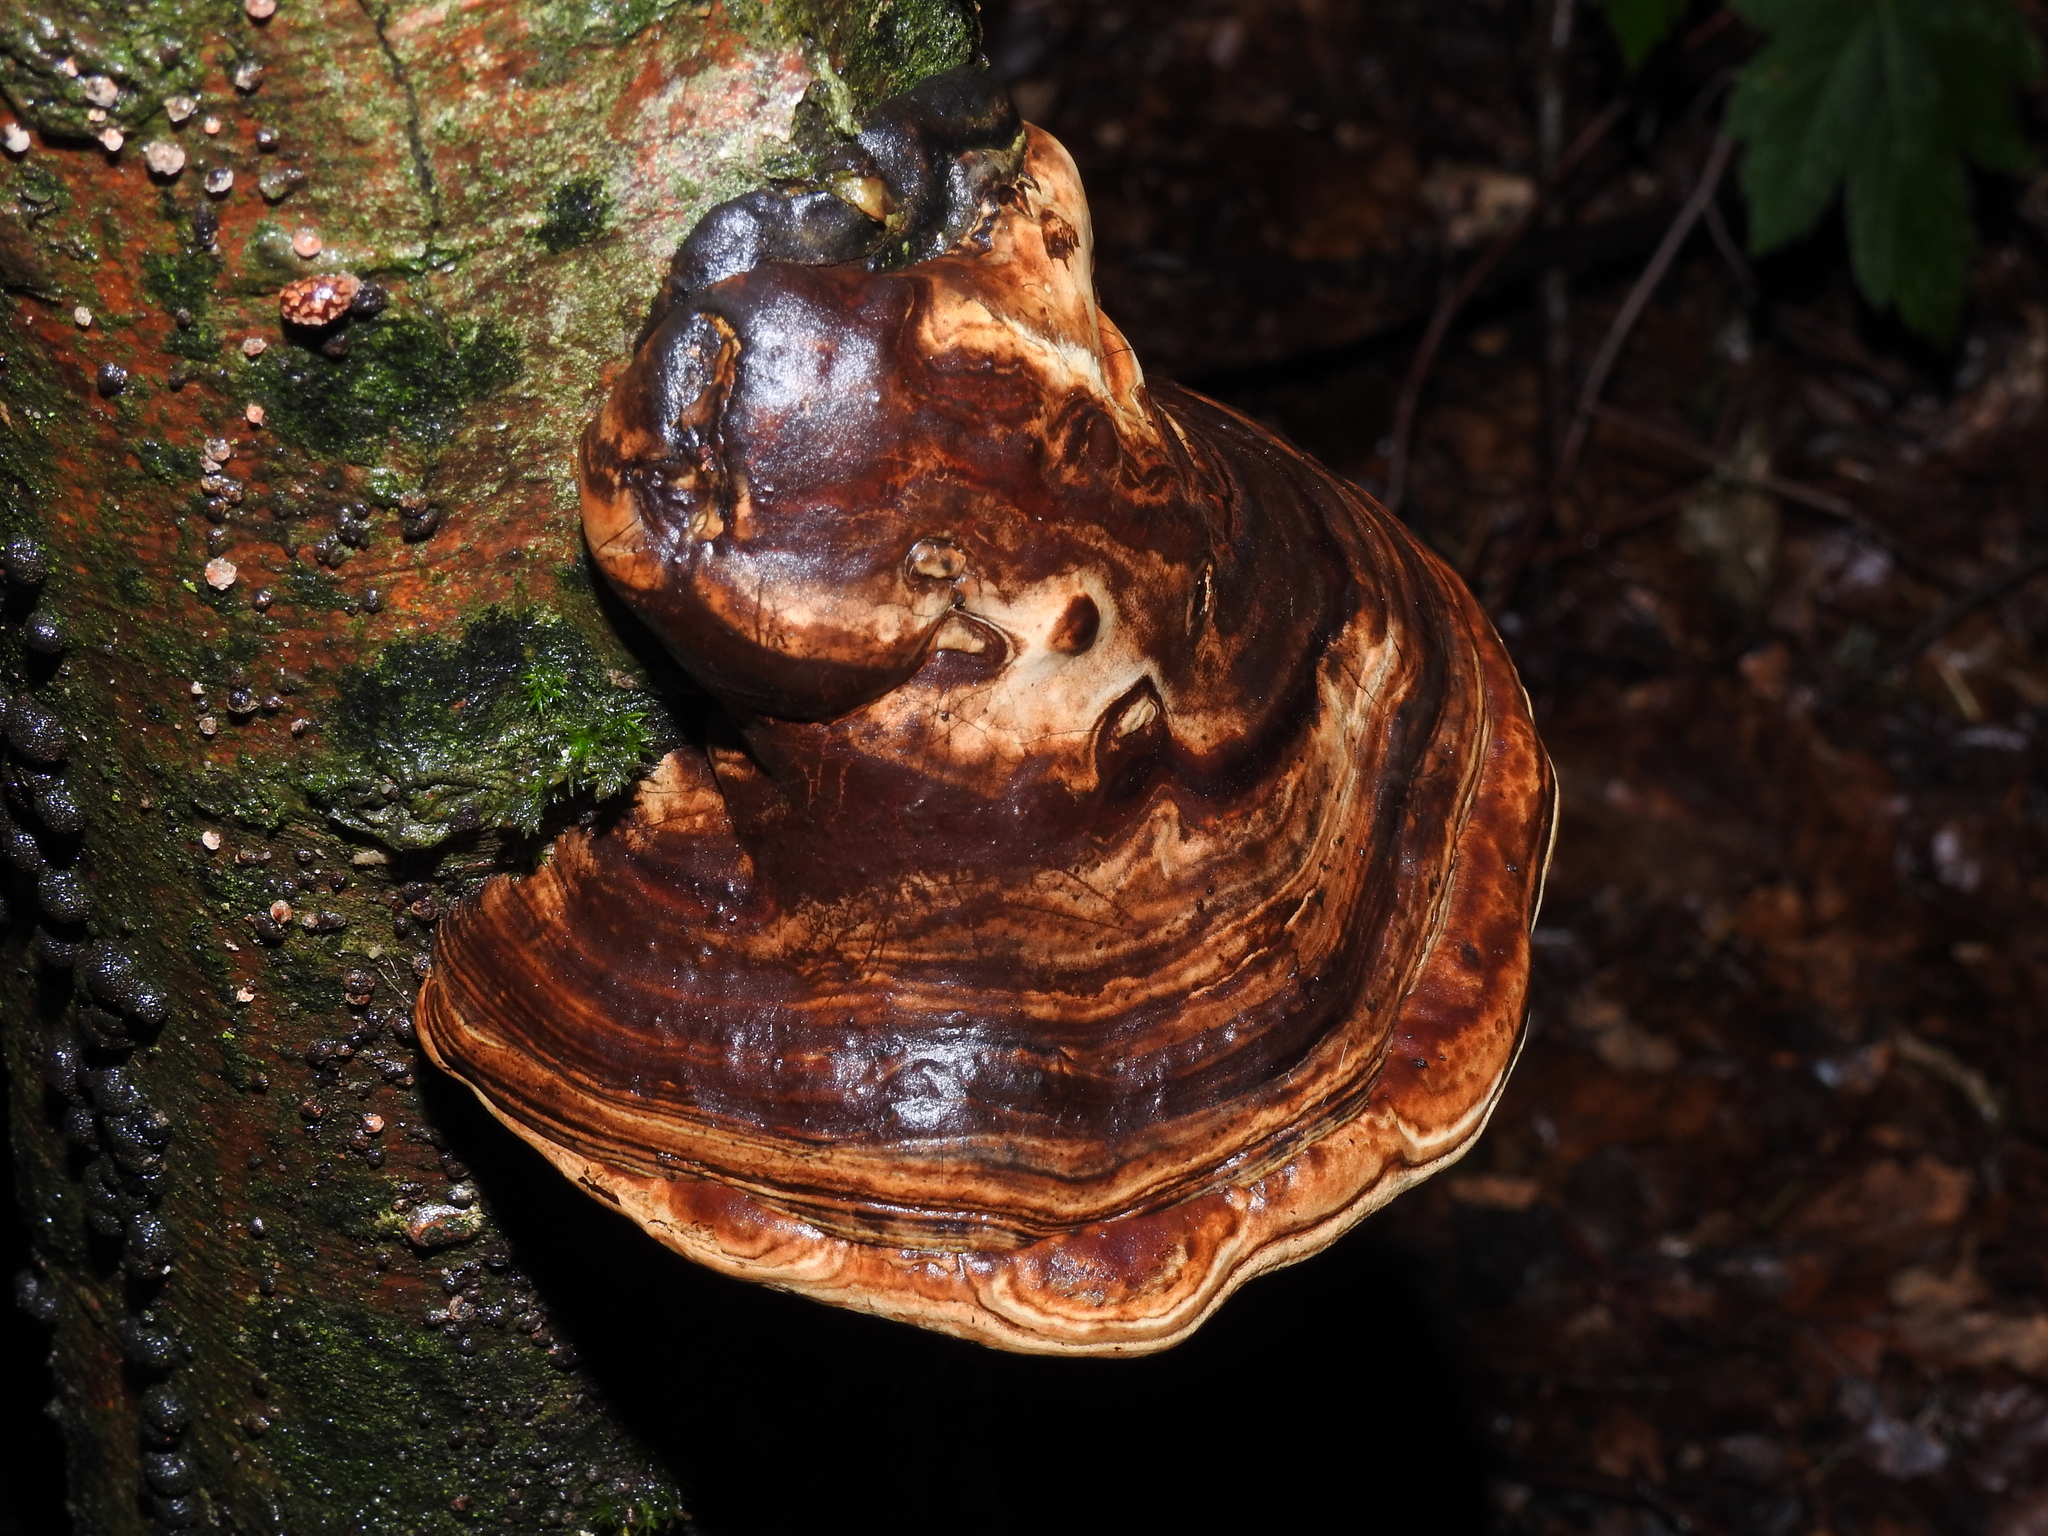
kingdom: Fungi
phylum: Basidiomycota
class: Agaricomycetes
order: Polyporales
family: Polyporaceae
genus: Fomes
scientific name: Fomes fomentarius
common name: Hoof fungus
